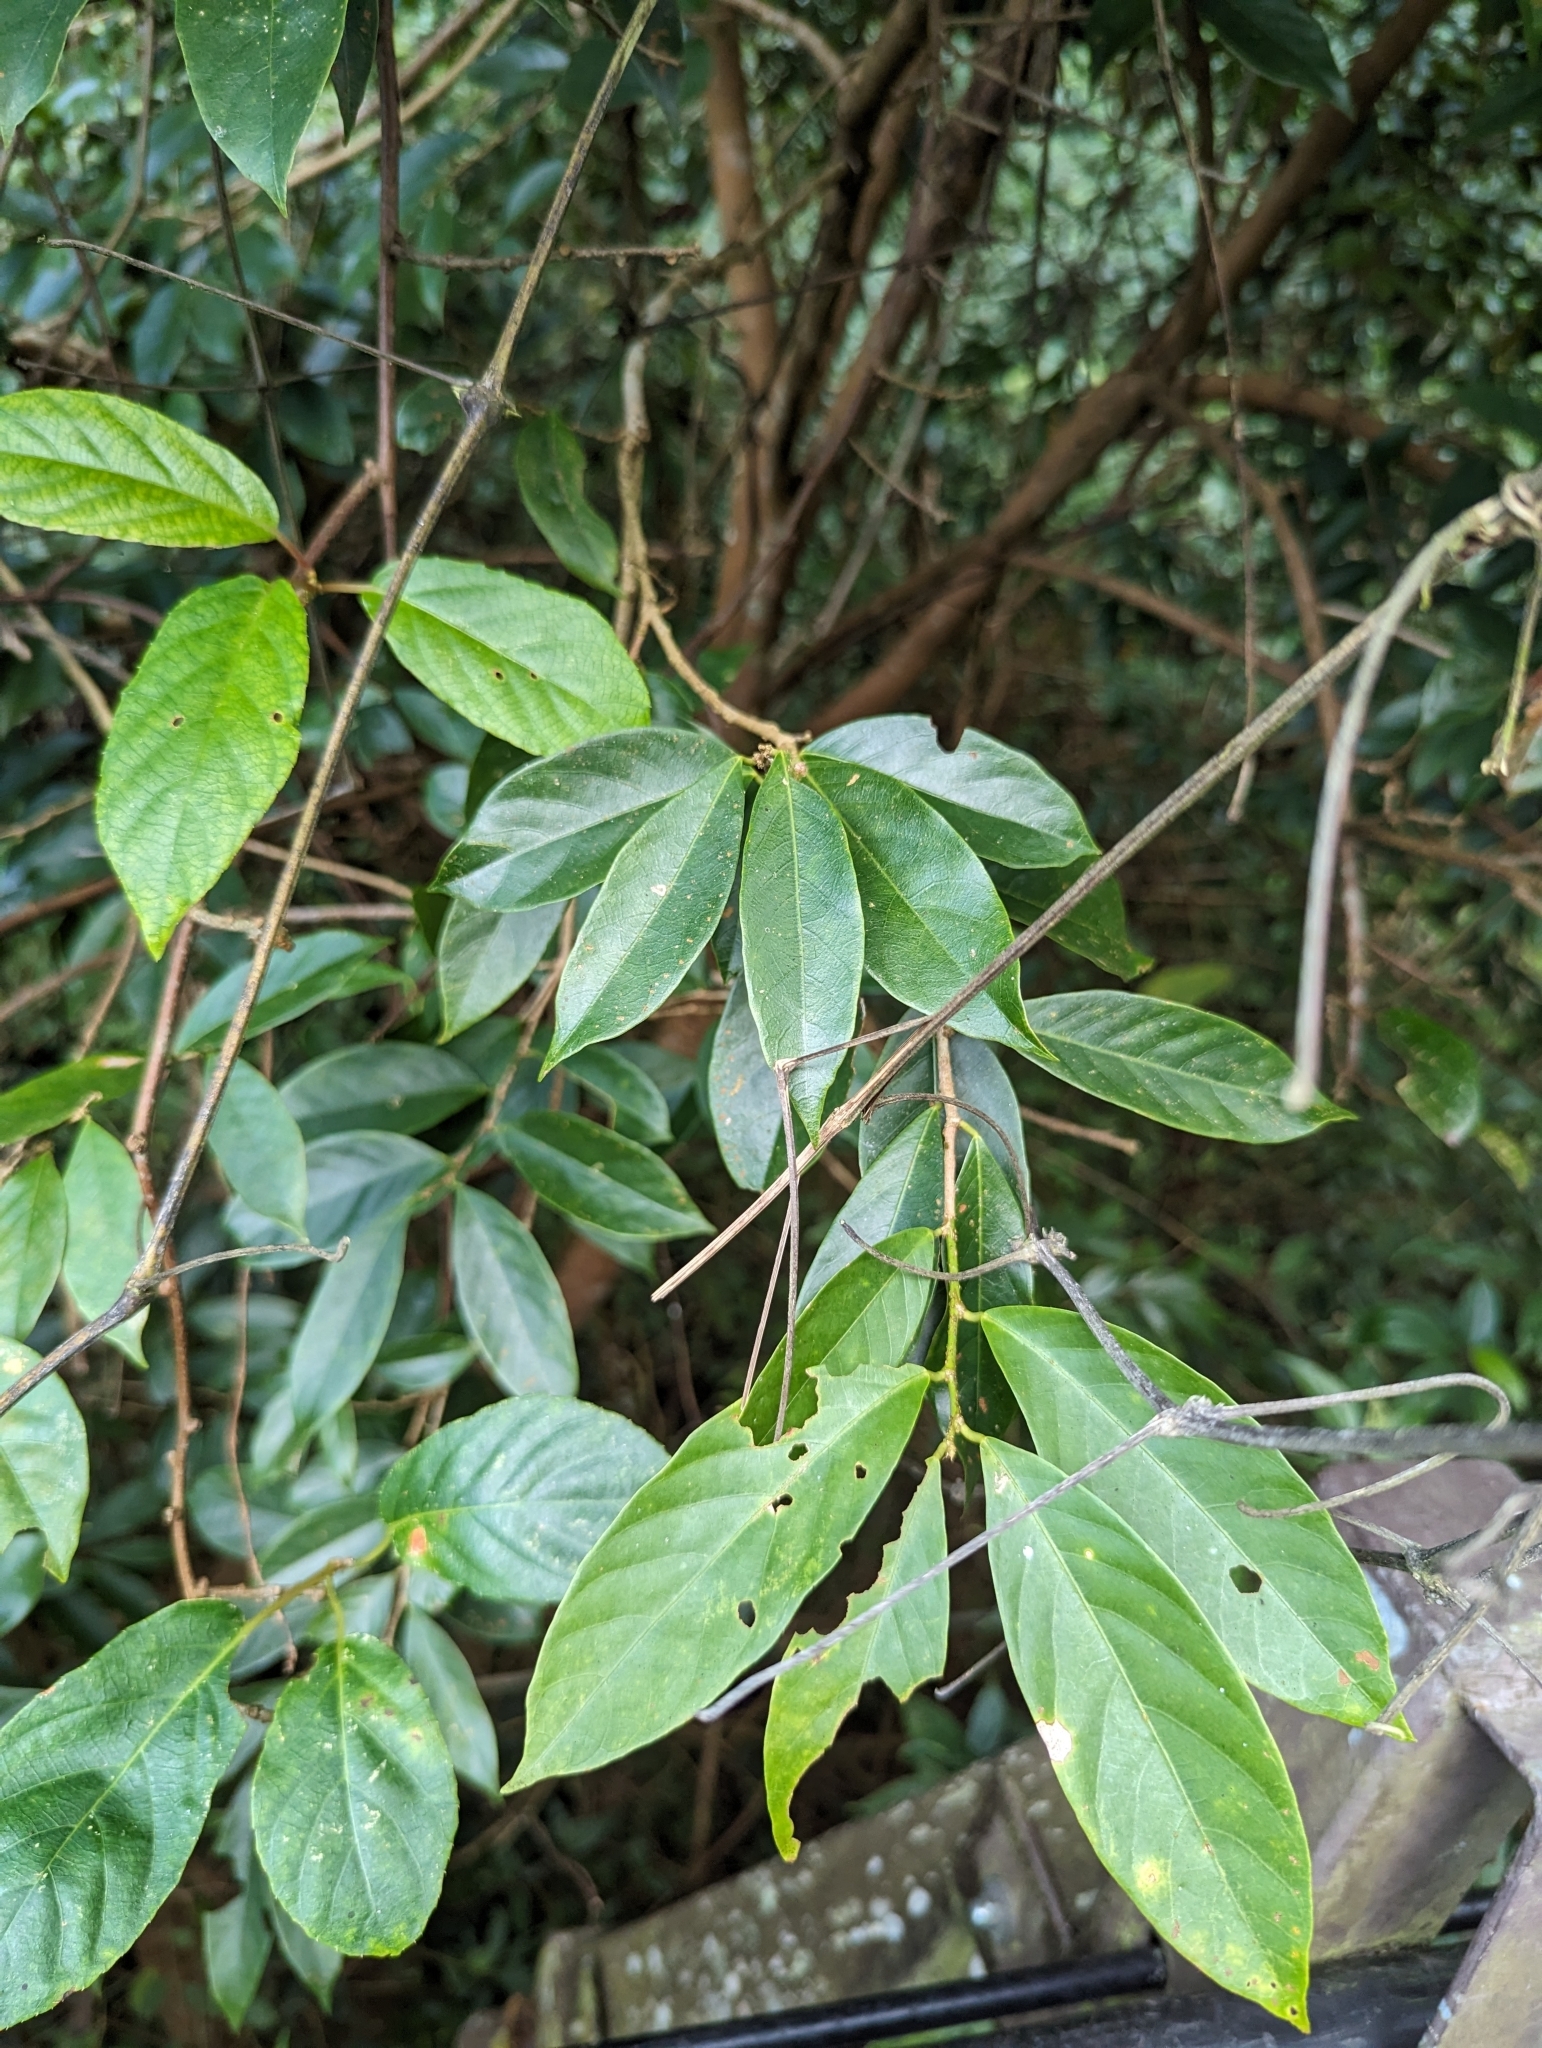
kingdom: Plantae
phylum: Tracheophyta
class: Magnoliopsida
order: Malpighiales
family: Phyllanthaceae
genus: Bridelia
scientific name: Bridelia balansae
